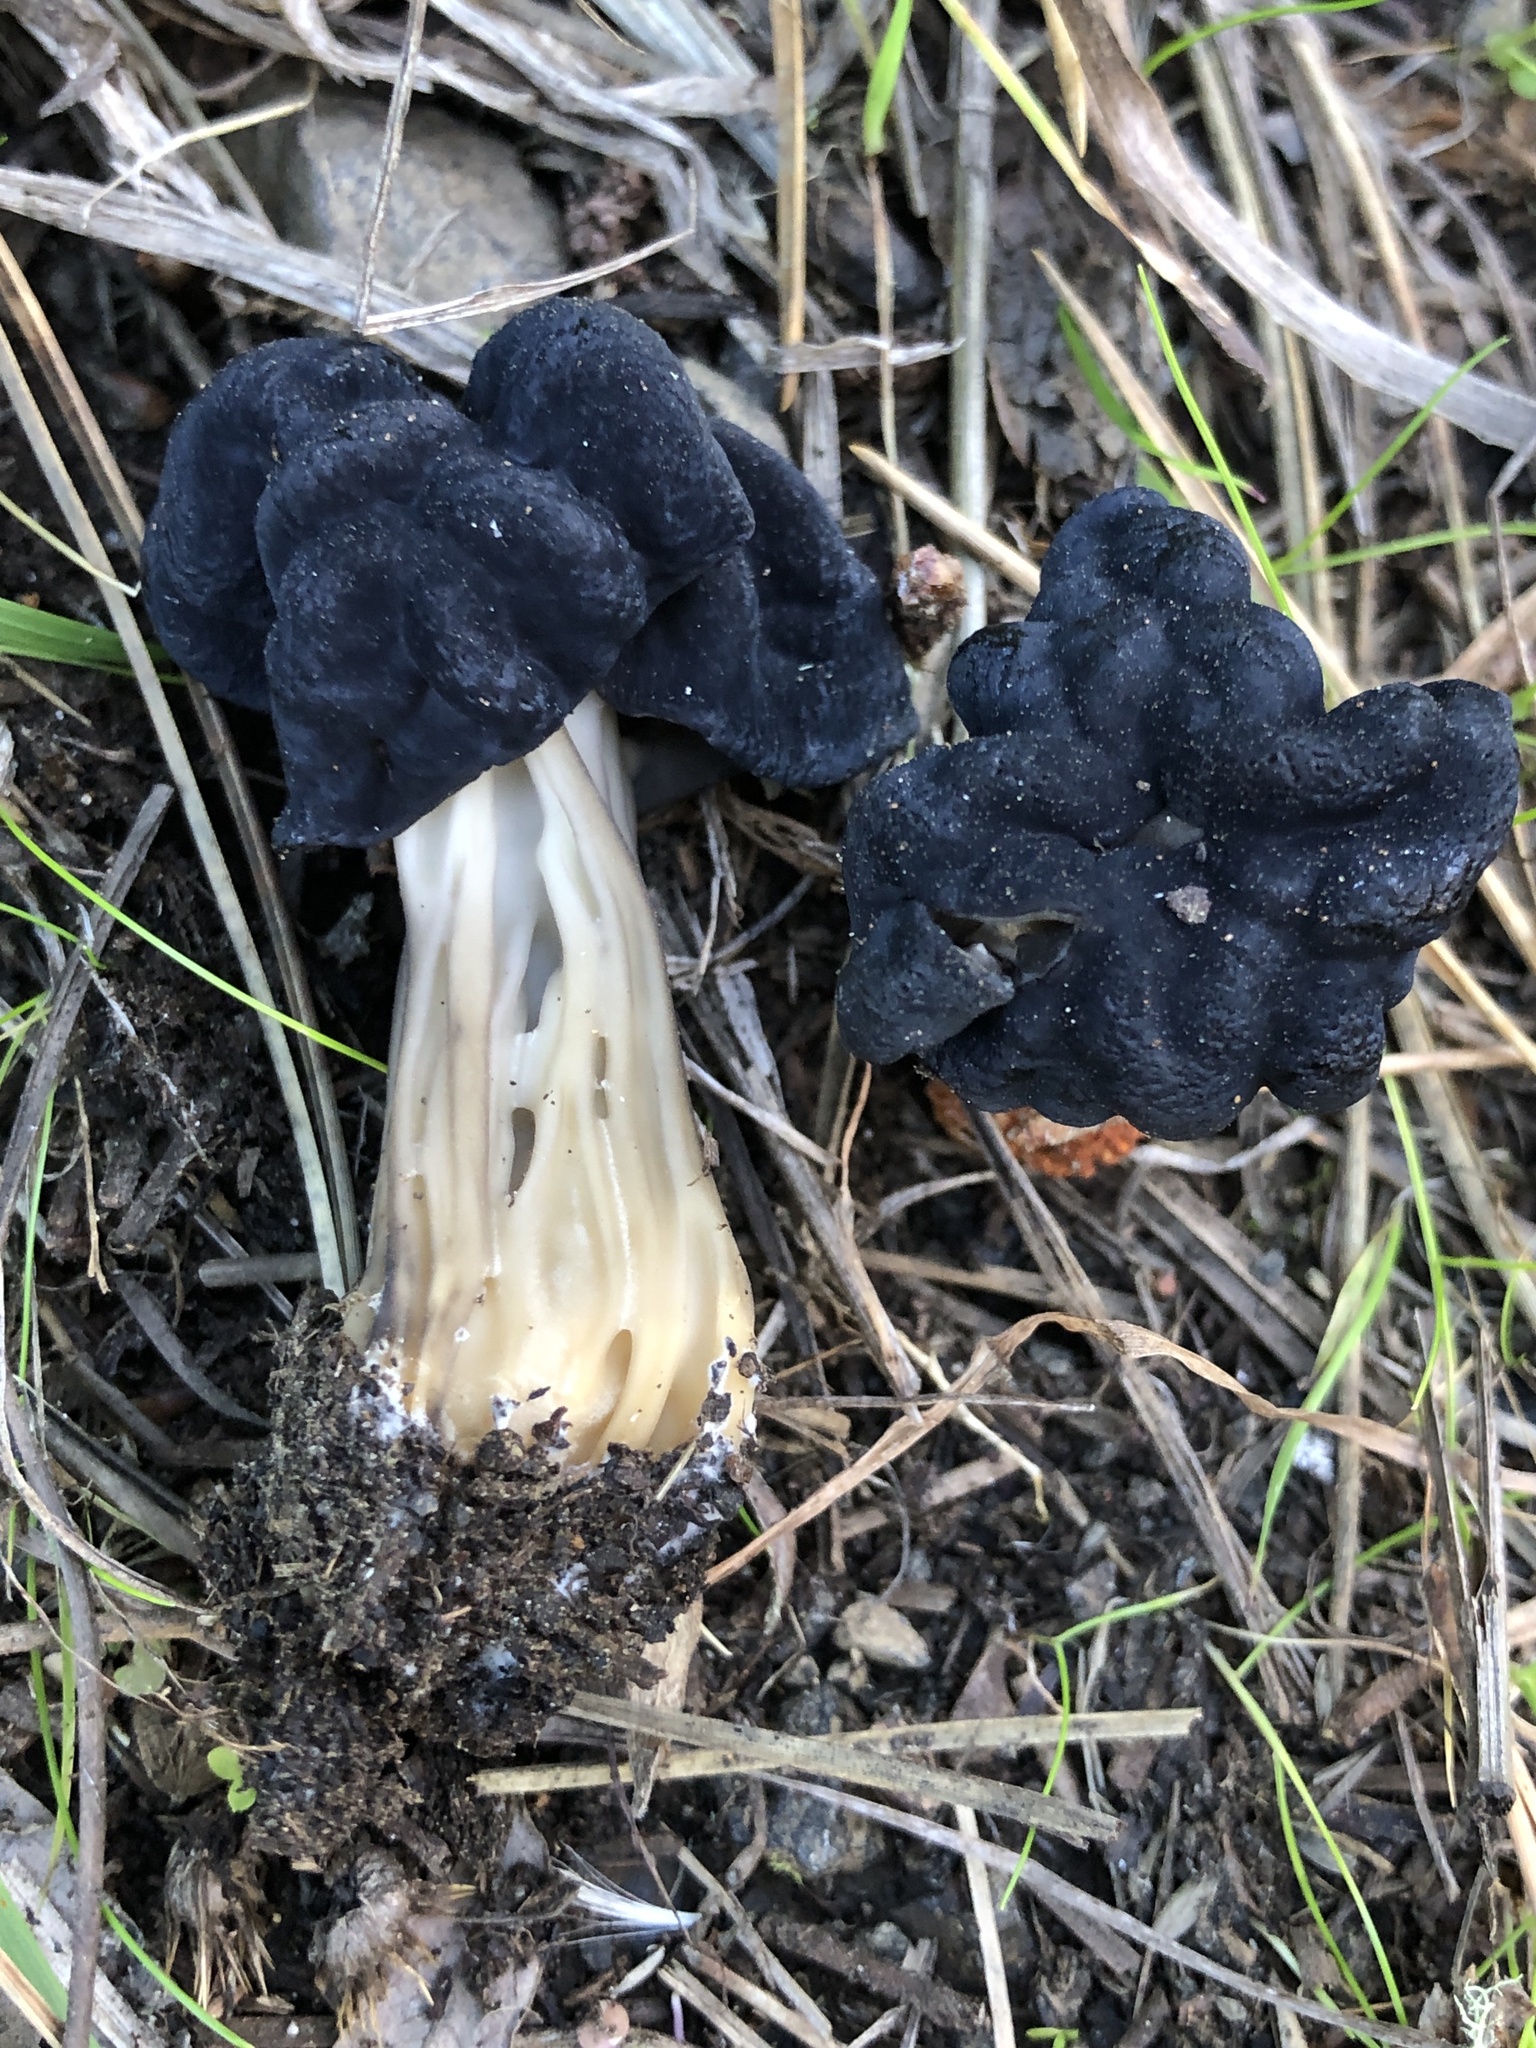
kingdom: Fungi
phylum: Ascomycota
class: Pezizomycetes
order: Pezizales
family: Helvellaceae
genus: Helvella
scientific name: Helvella vespertina
